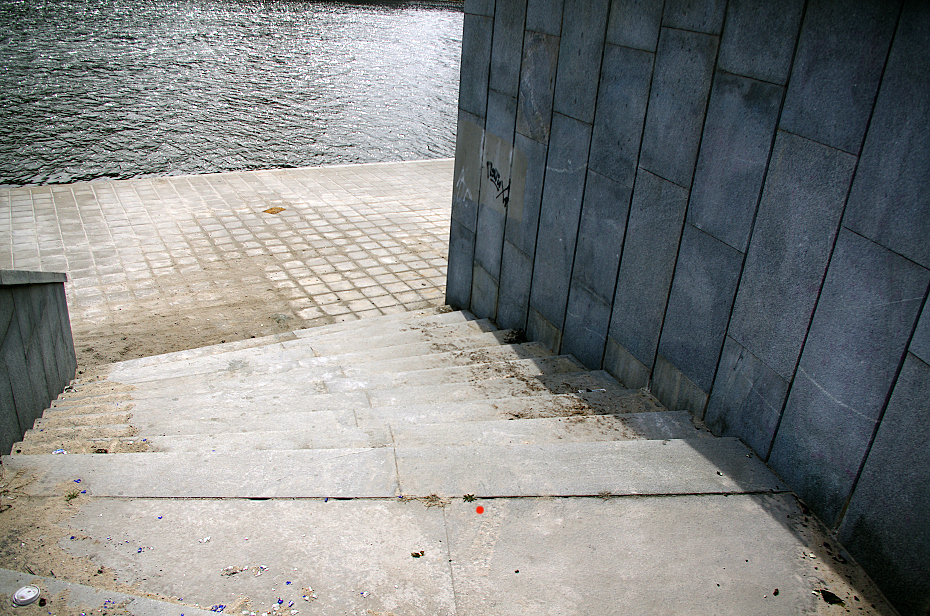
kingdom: Plantae
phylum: Tracheophyta
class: Magnoliopsida
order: Asterales
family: Asteraceae
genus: Taraxacum
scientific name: Taraxacum officinale
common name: Common dandelion
